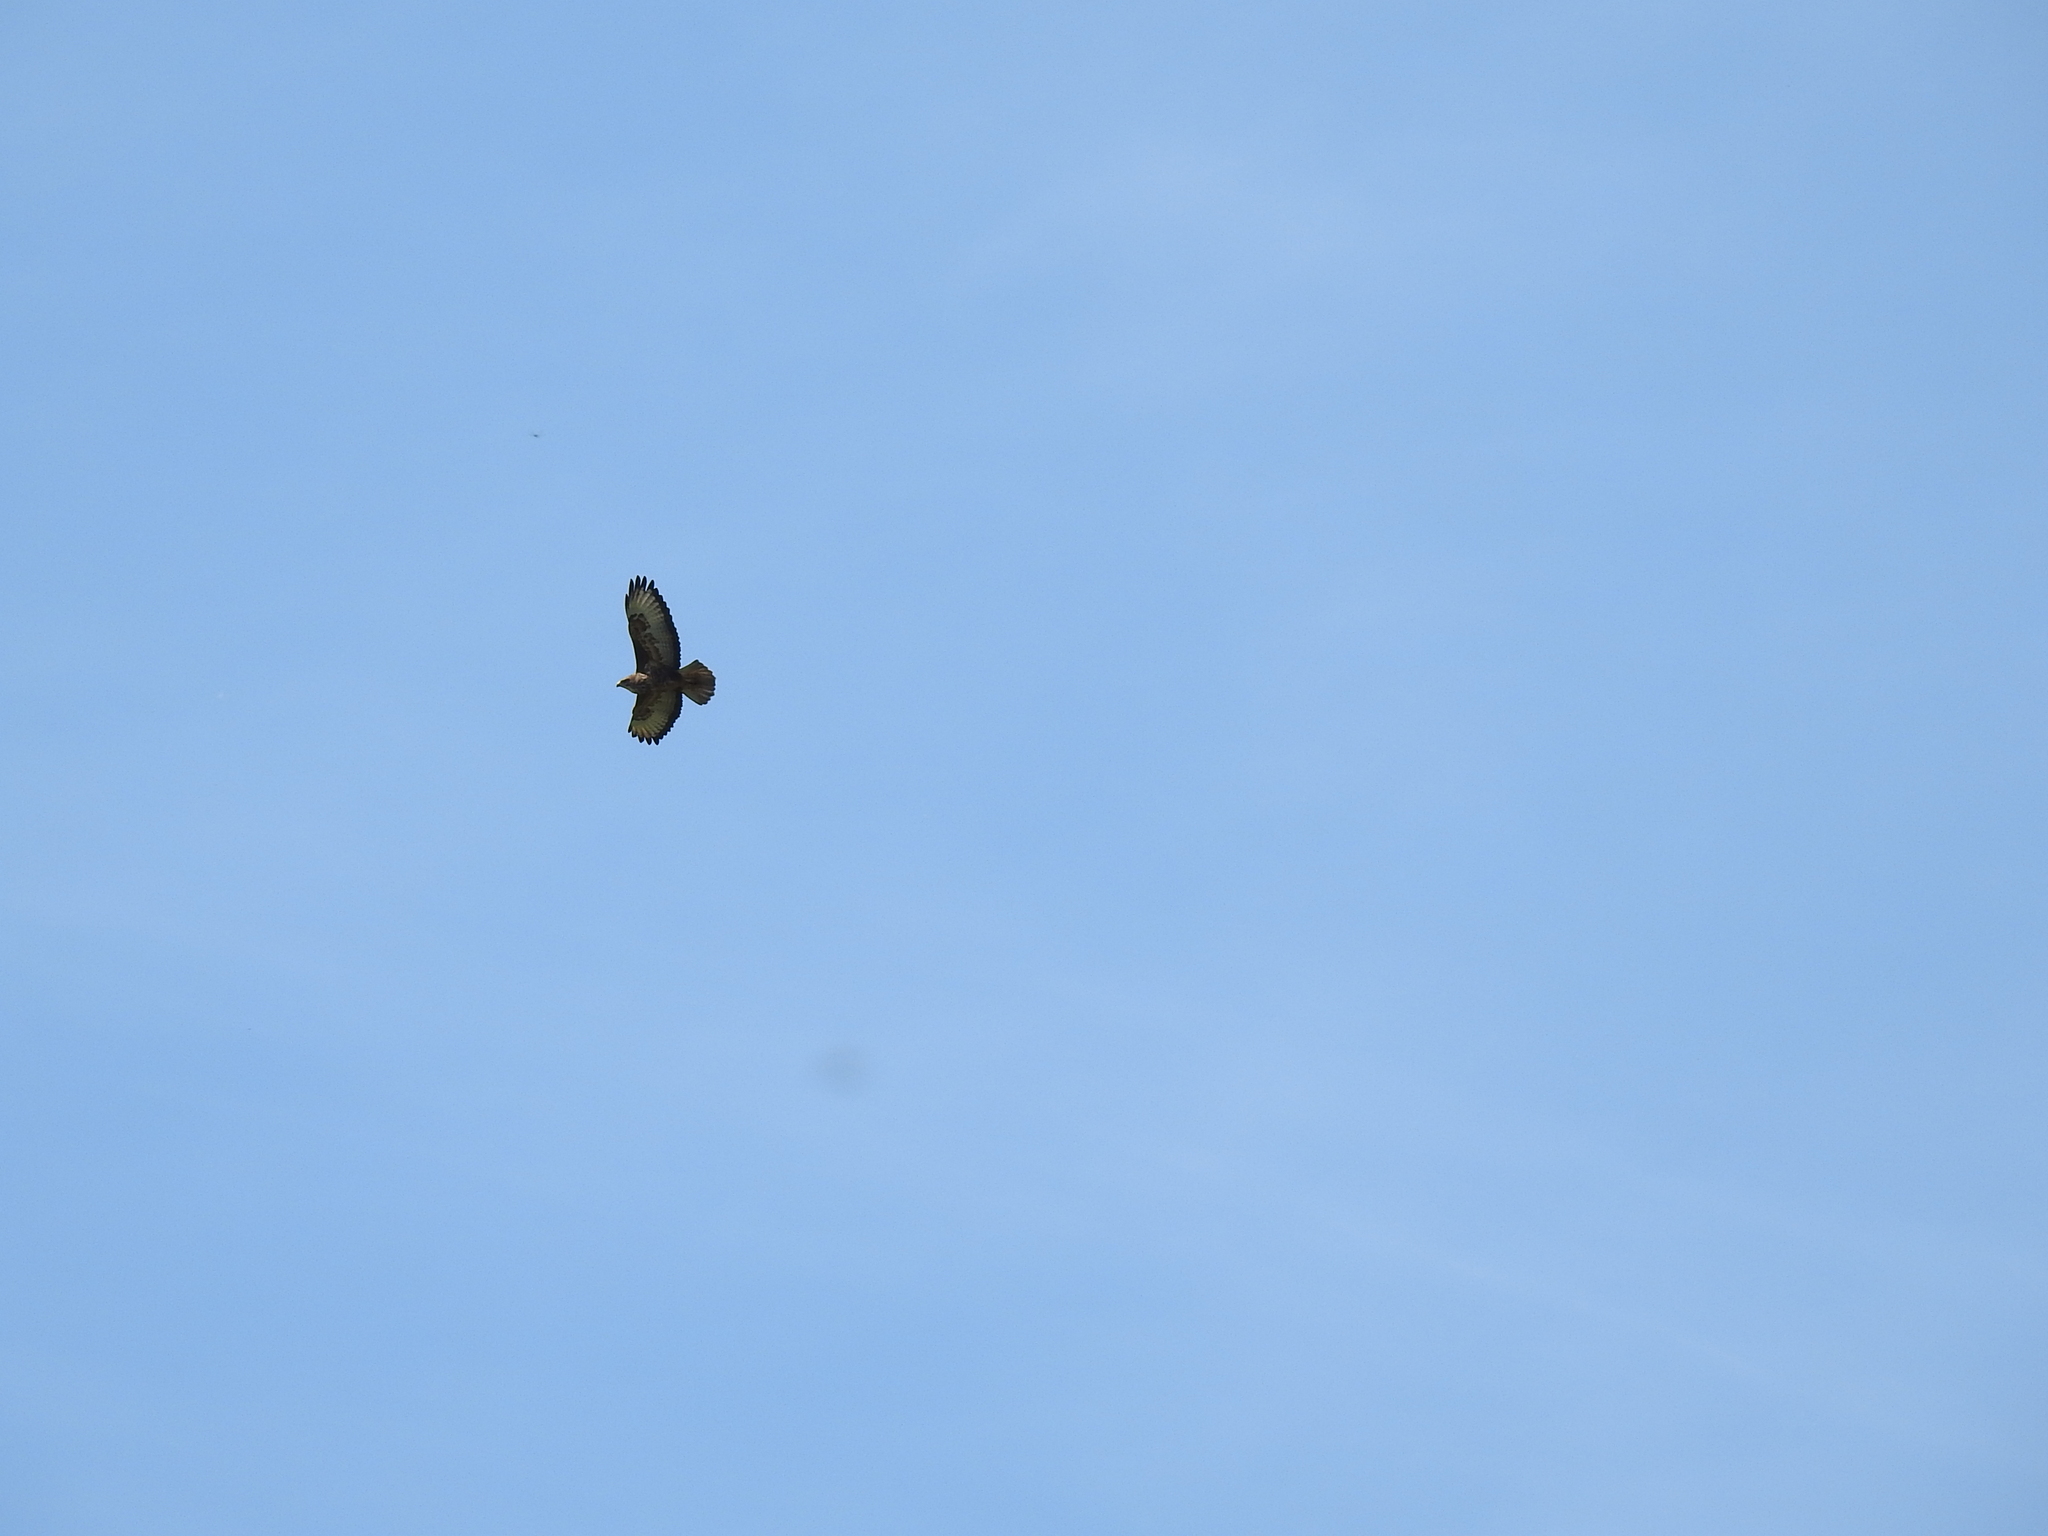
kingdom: Animalia
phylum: Chordata
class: Aves
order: Accipitriformes
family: Accipitridae
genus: Buteo
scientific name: Buteo buteo
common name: Common buzzard
